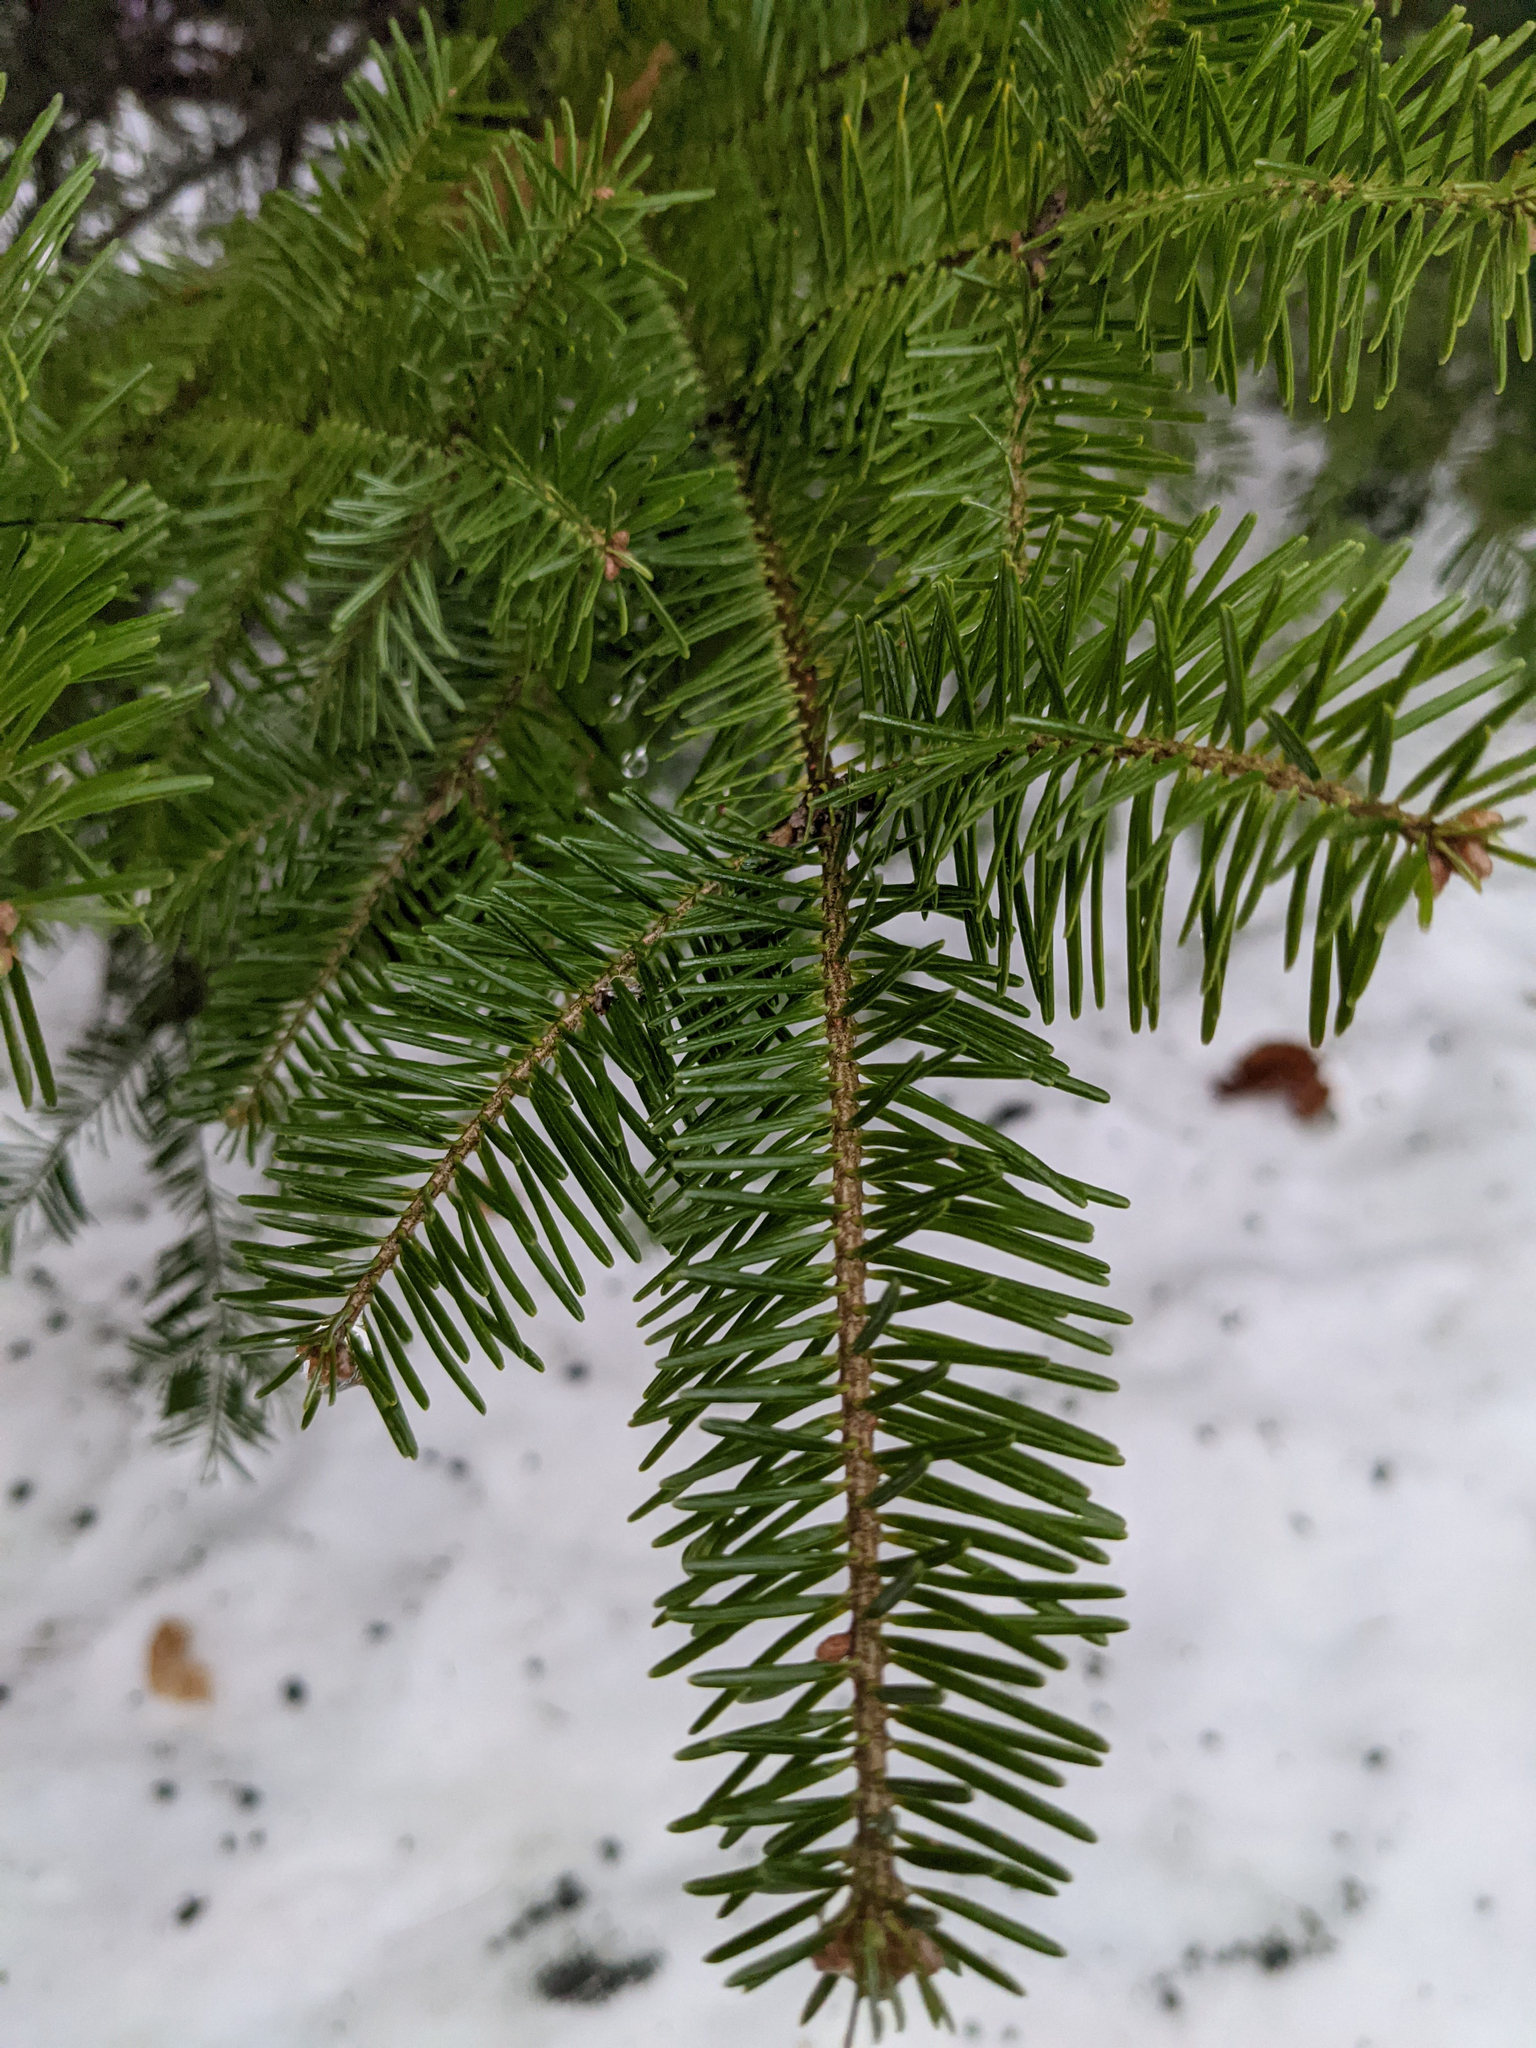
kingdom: Plantae
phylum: Tracheophyta
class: Pinopsida
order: Pinales
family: Pinaceae
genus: Abies
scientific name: Abies balsamea
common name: Balsam fir
